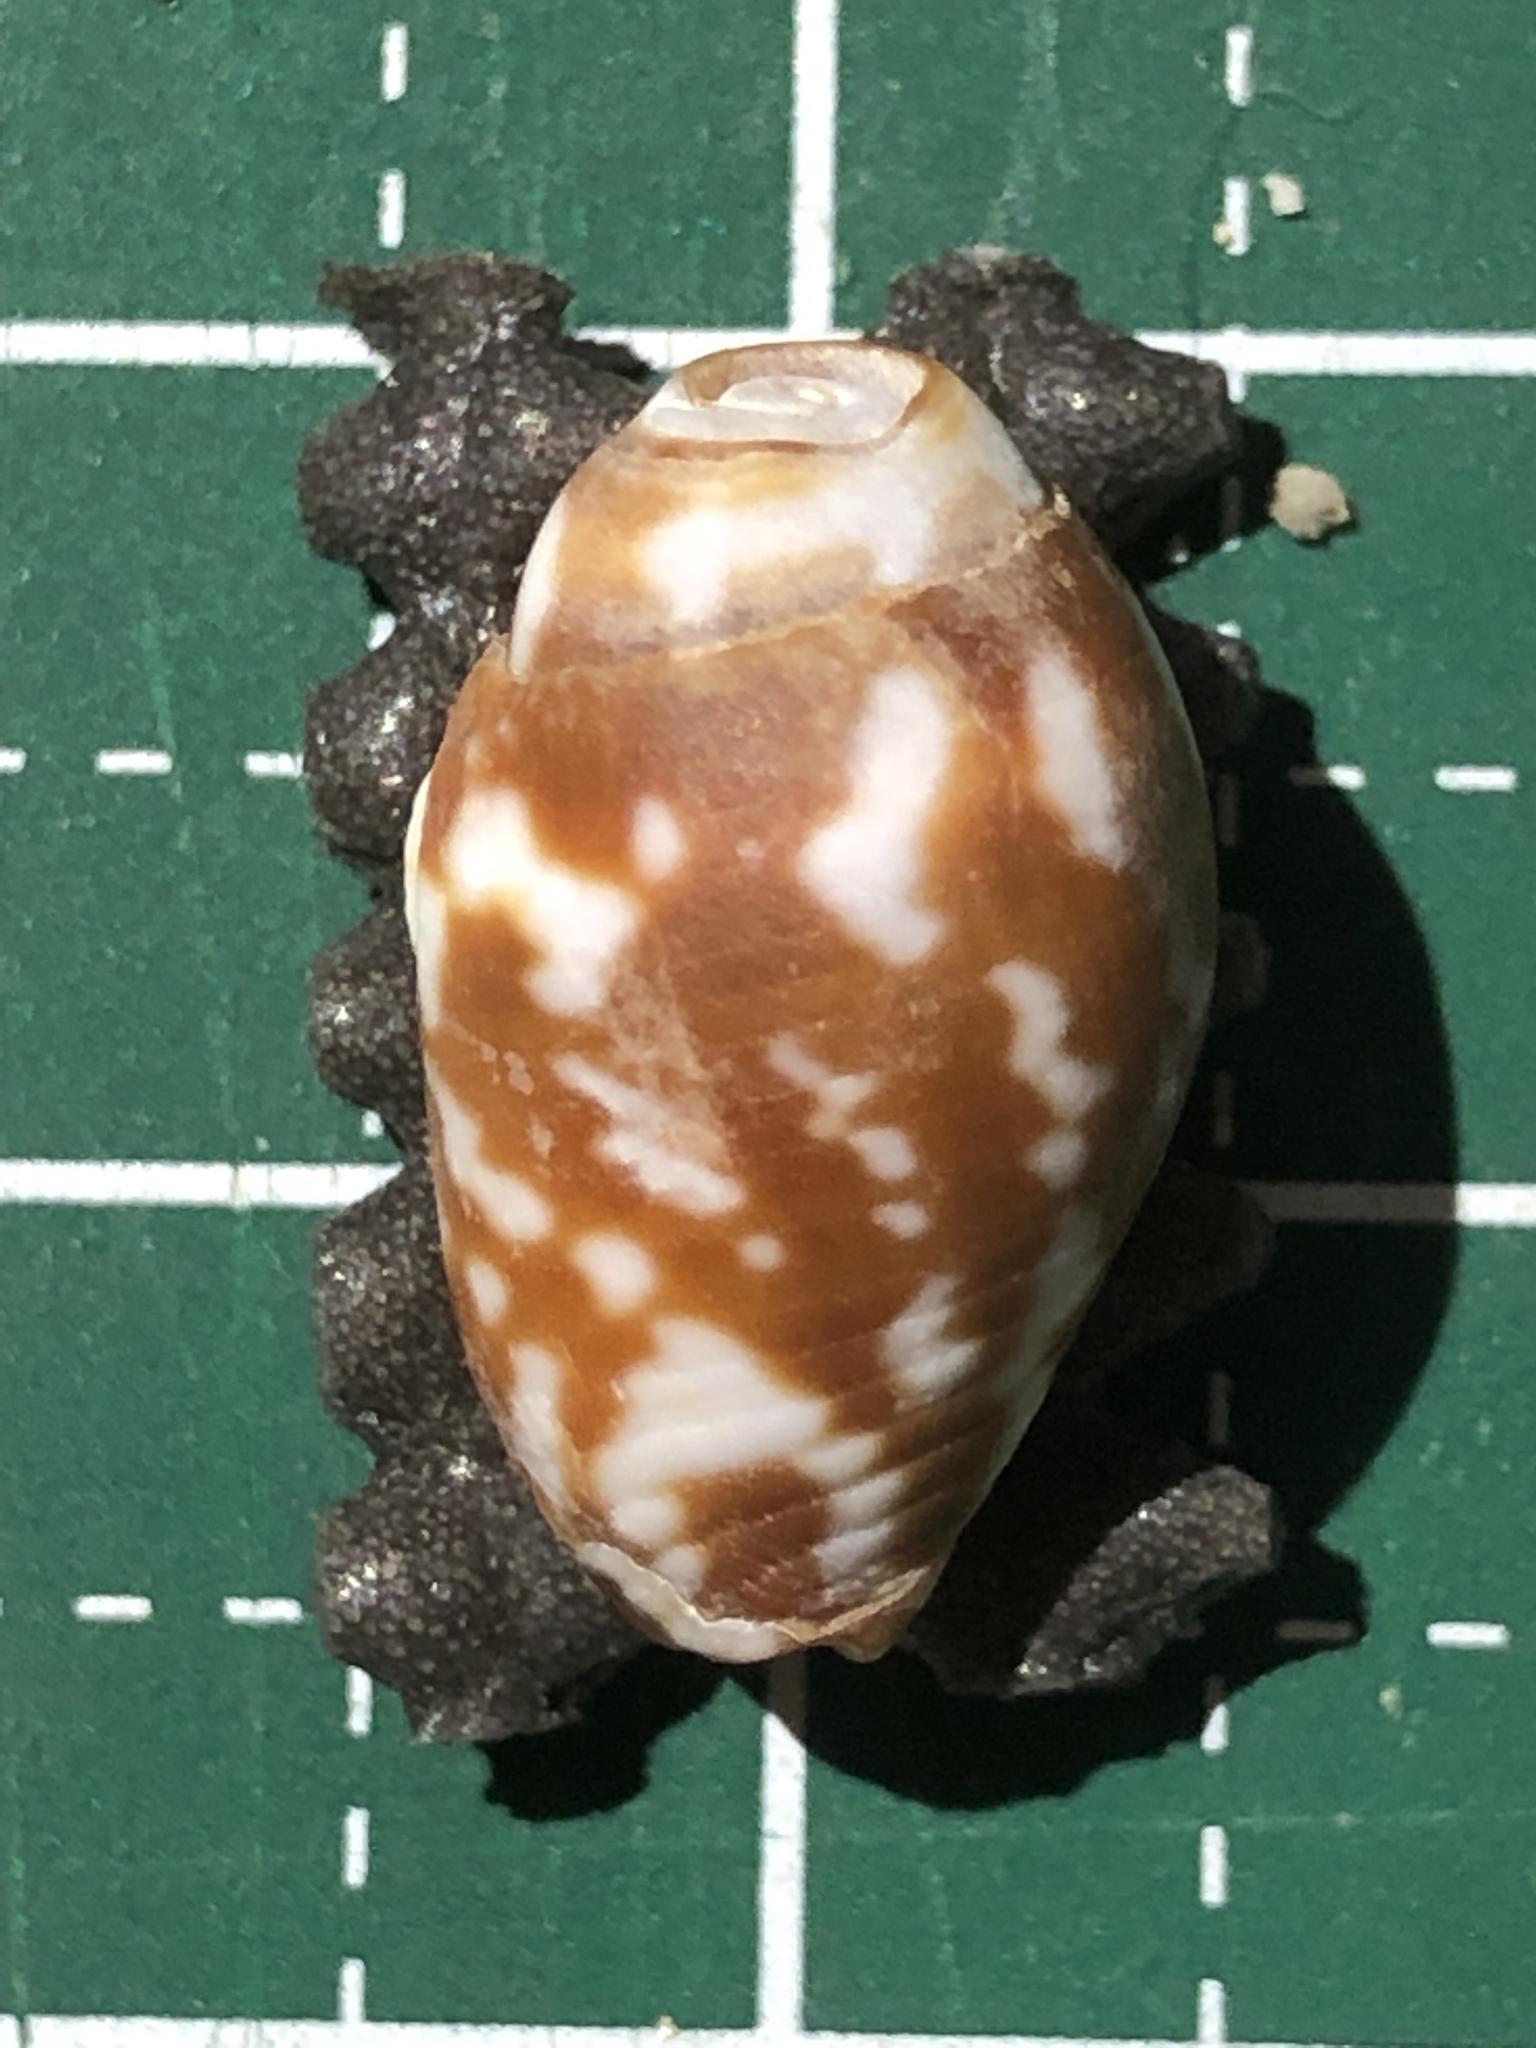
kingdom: Animalia
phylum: Mollusca
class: Gastropoda
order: Neogastropoda
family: Mitridae
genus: Strigatella
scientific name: Strigatella litterata
